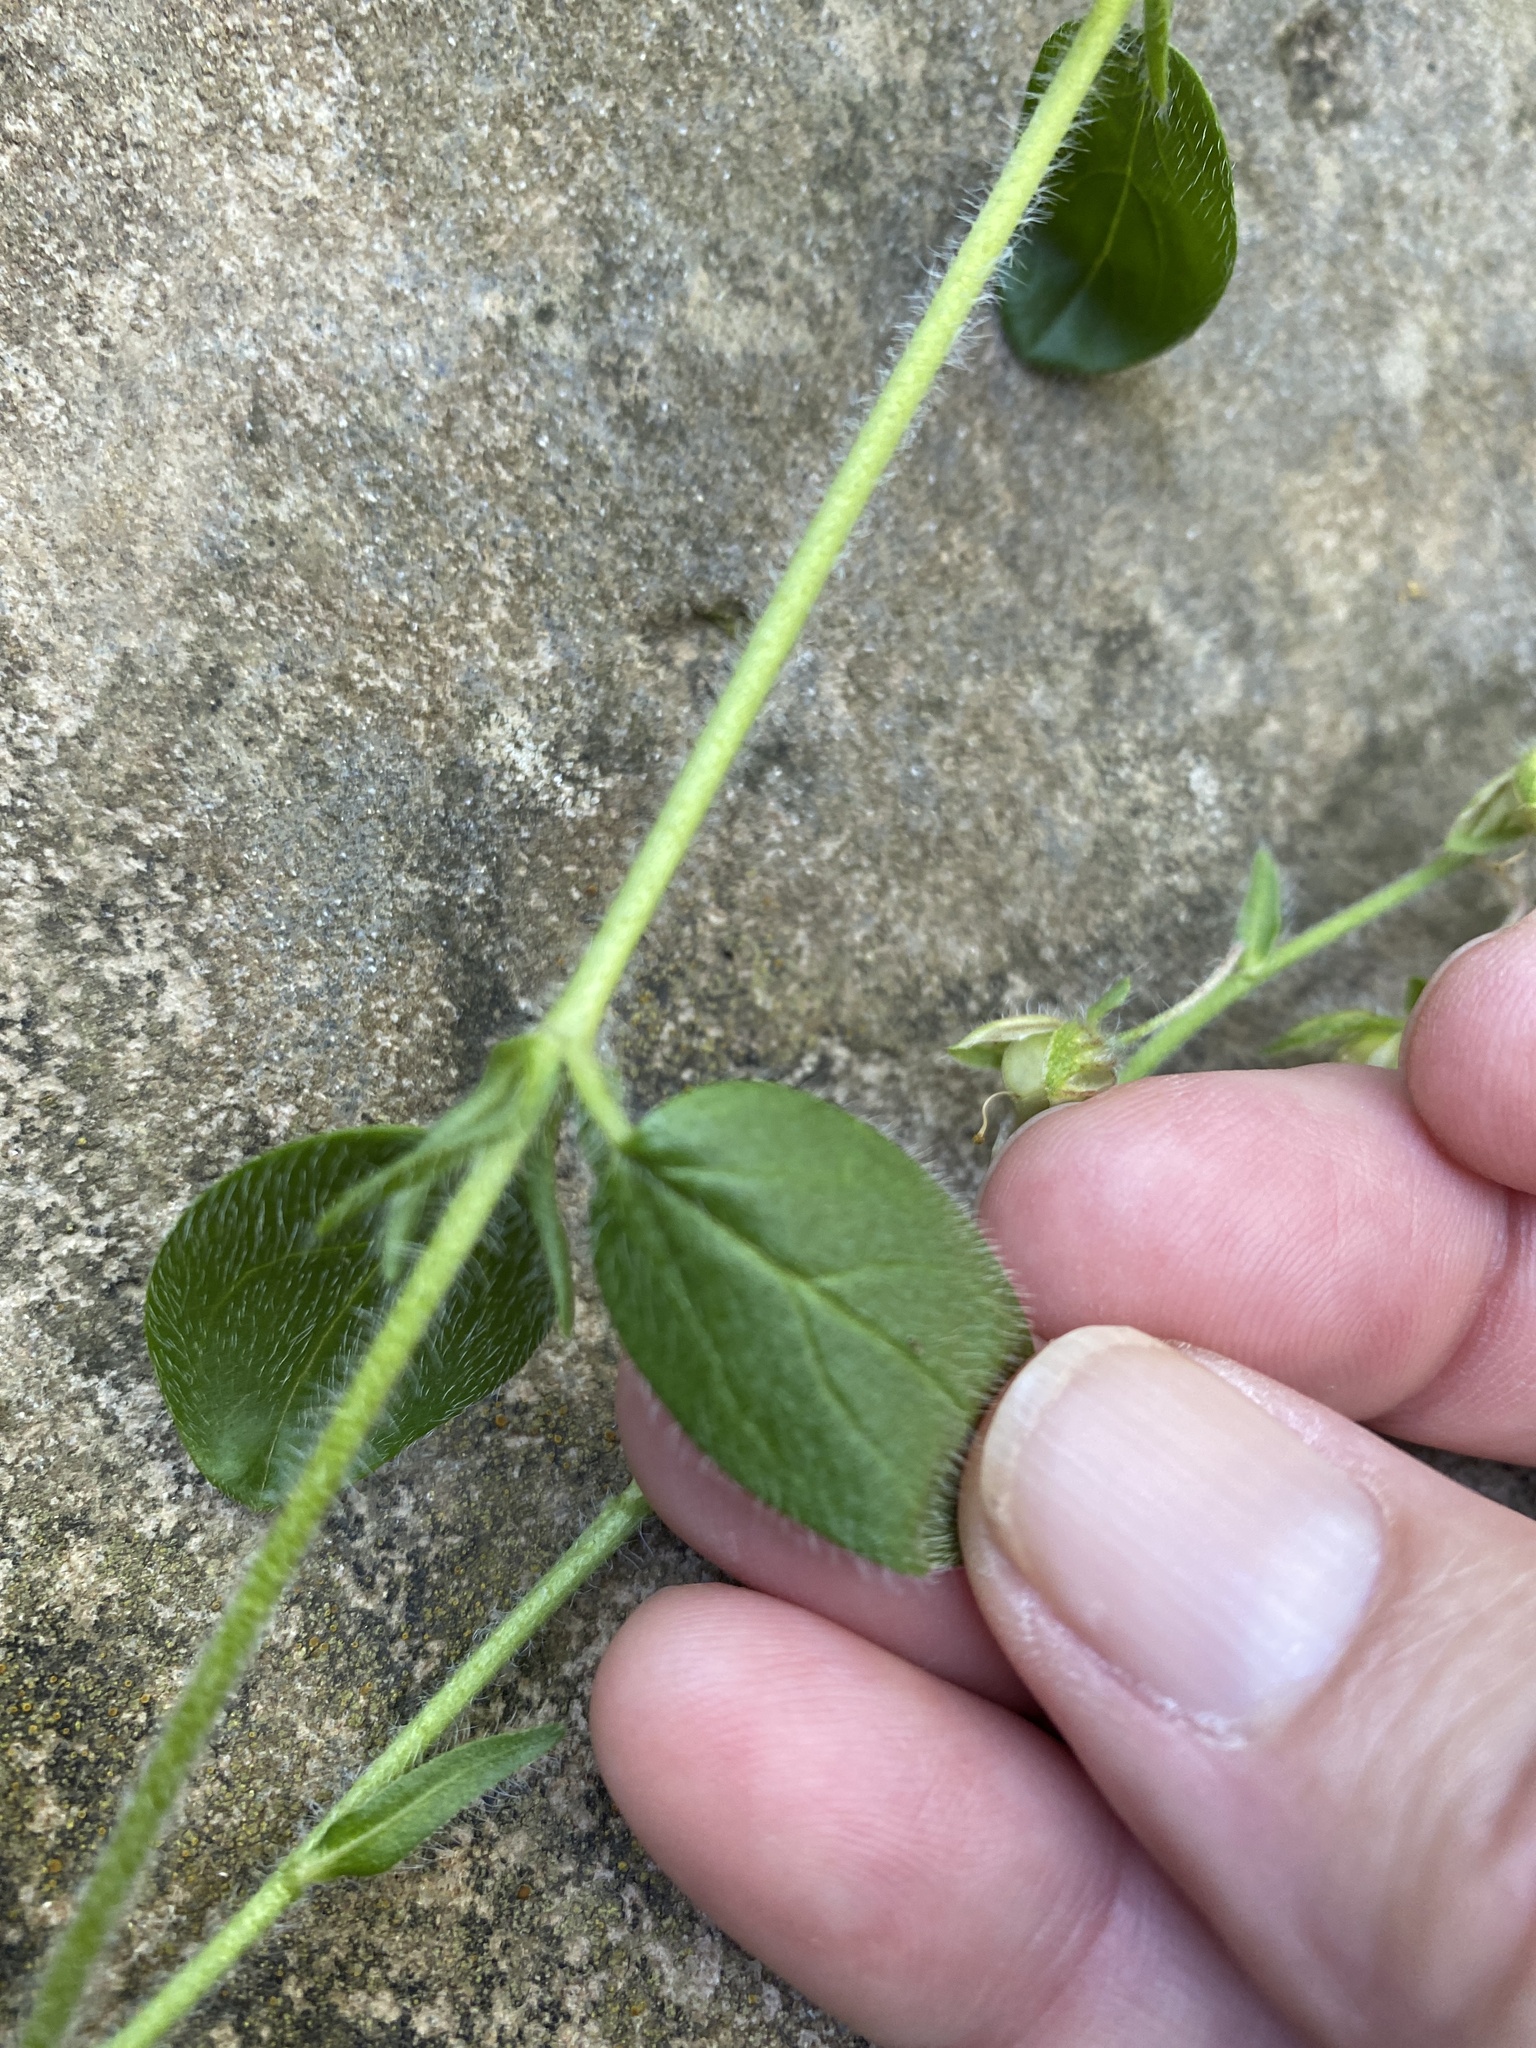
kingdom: Plantae
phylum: Tracheophyta
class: Magnoliopsida
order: Malvales
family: Cistaceae
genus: Helianthemum
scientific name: Helianthemum nummularium
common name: Common rock-rose
